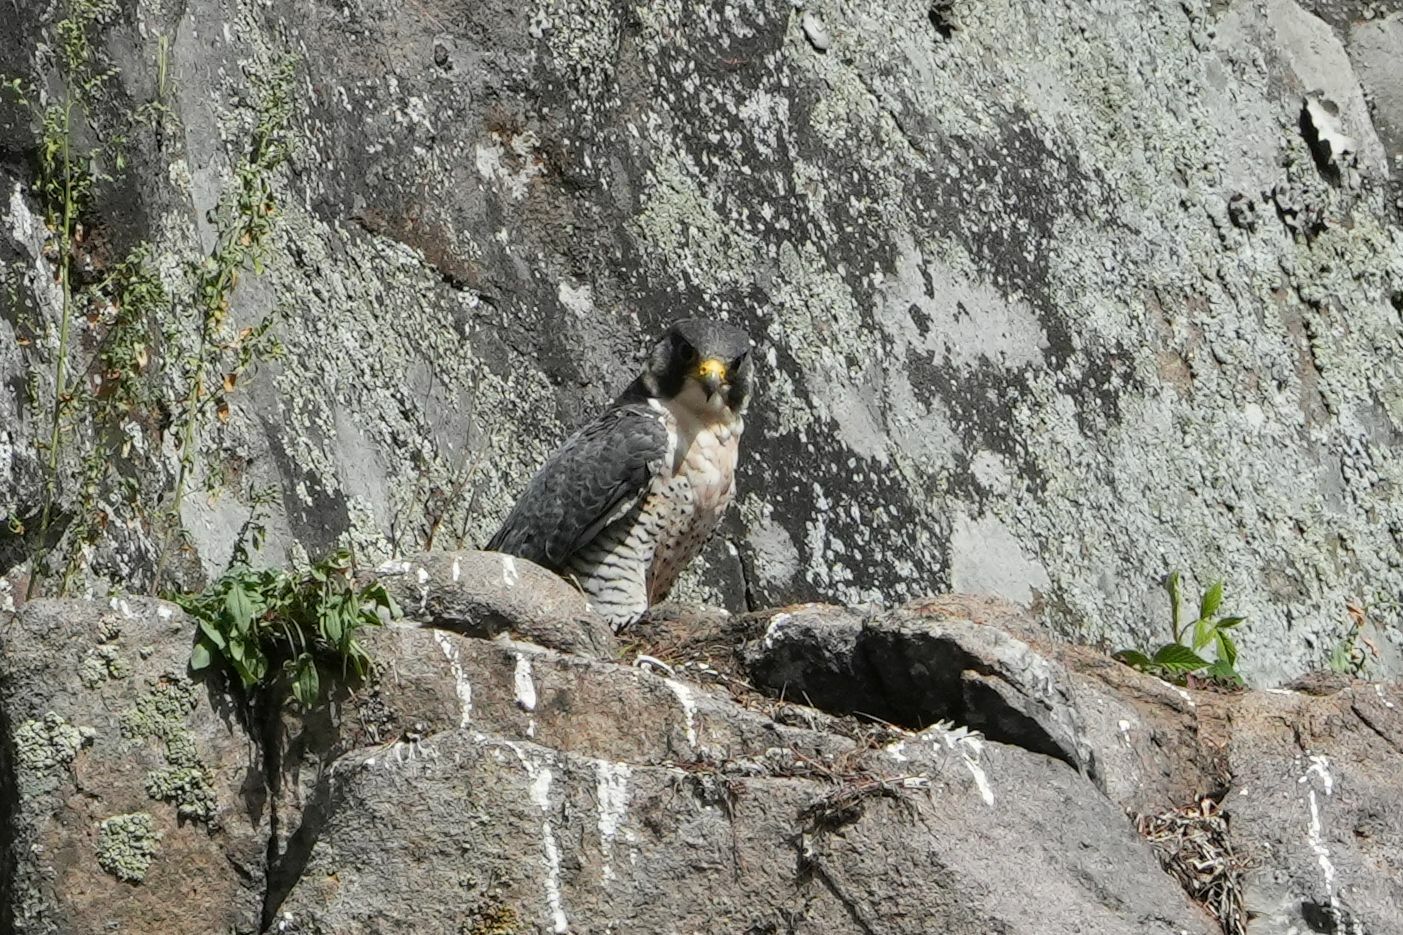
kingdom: Animalia
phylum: Chordata
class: Aves
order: Falconiformes
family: Falconidae
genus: Falco
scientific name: Falco peregrinus
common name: Peregrine falcon
